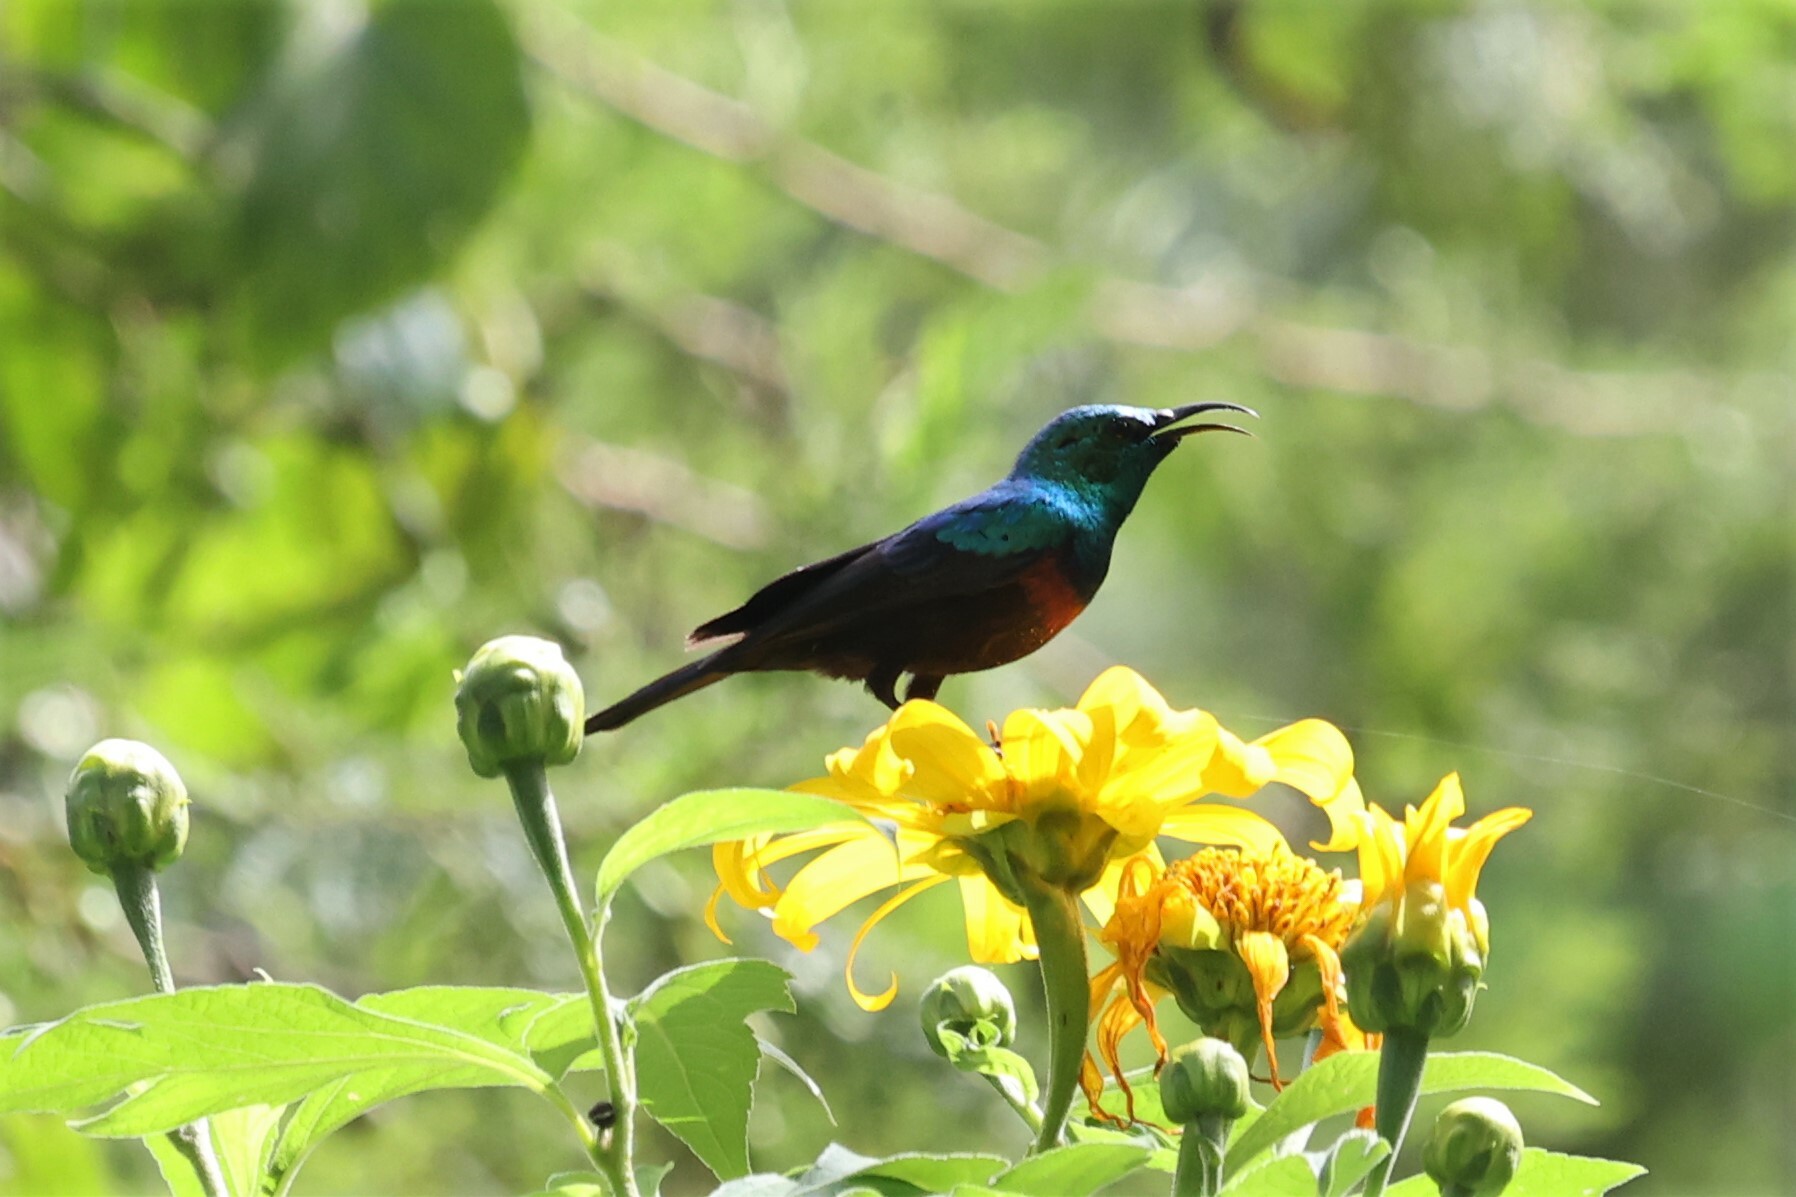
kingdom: Animalia
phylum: Chordata
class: Aves
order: Passeriformes
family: Nectariniidae
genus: Cinnyris
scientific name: Cinnyris erythrocercus
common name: Red-chested sunbird
